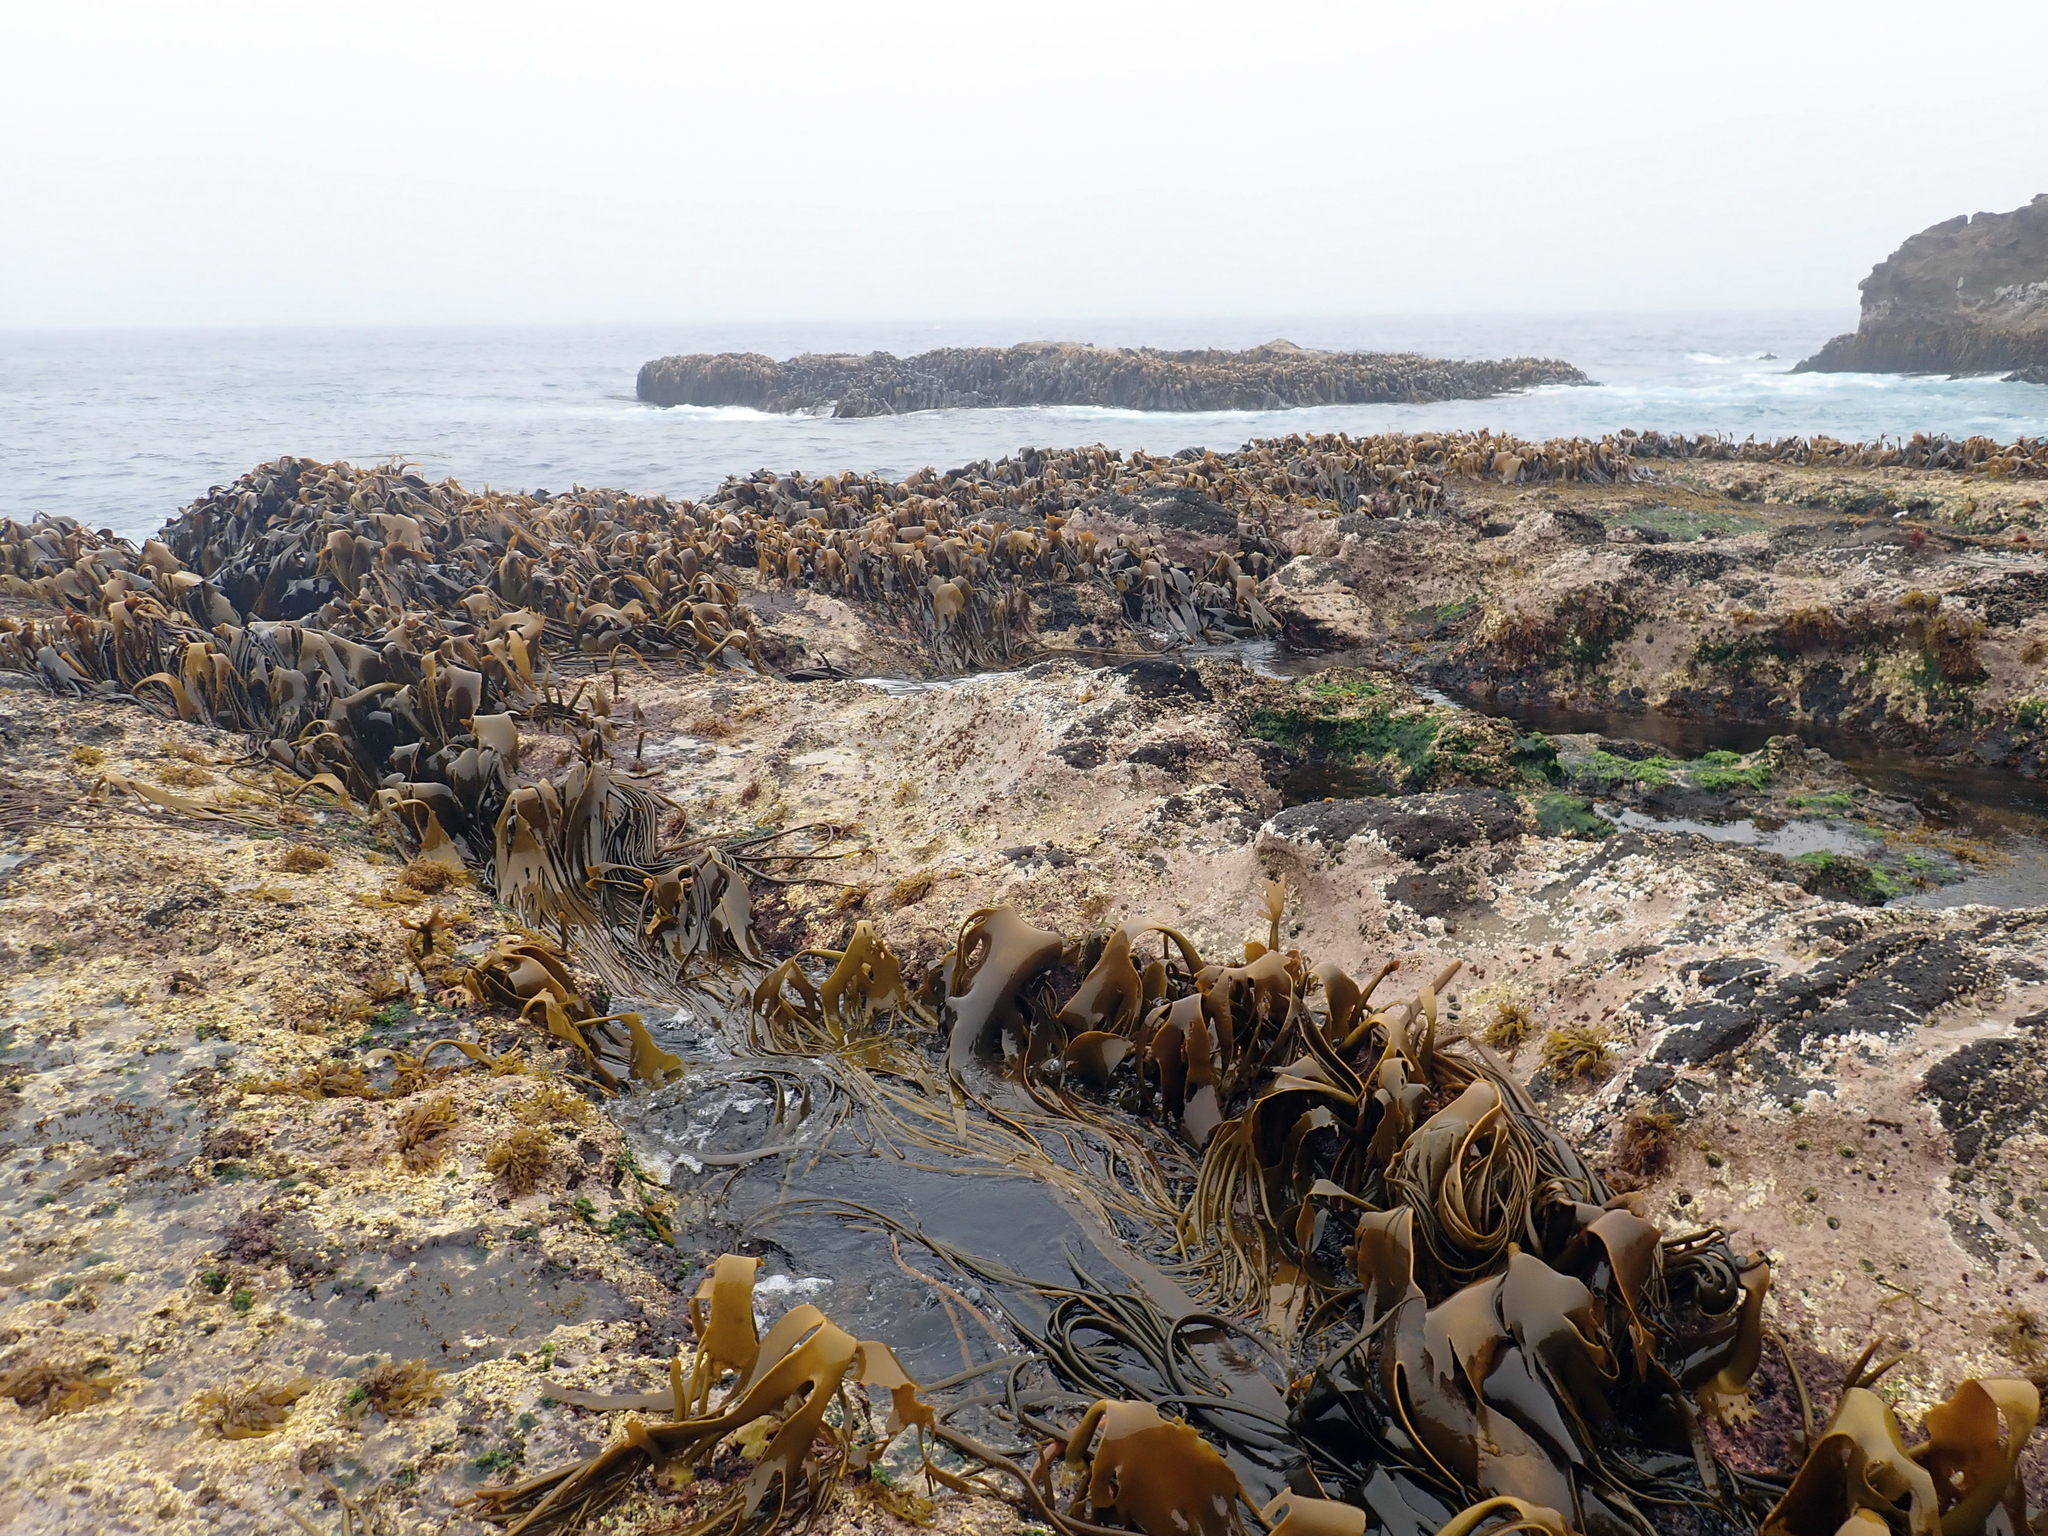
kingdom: Chromista
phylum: Ochrophyta
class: Phaeophyceae
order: Fucales
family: Durvillaeaceae
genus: Durvillaea
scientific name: Durvillaea antarctica
